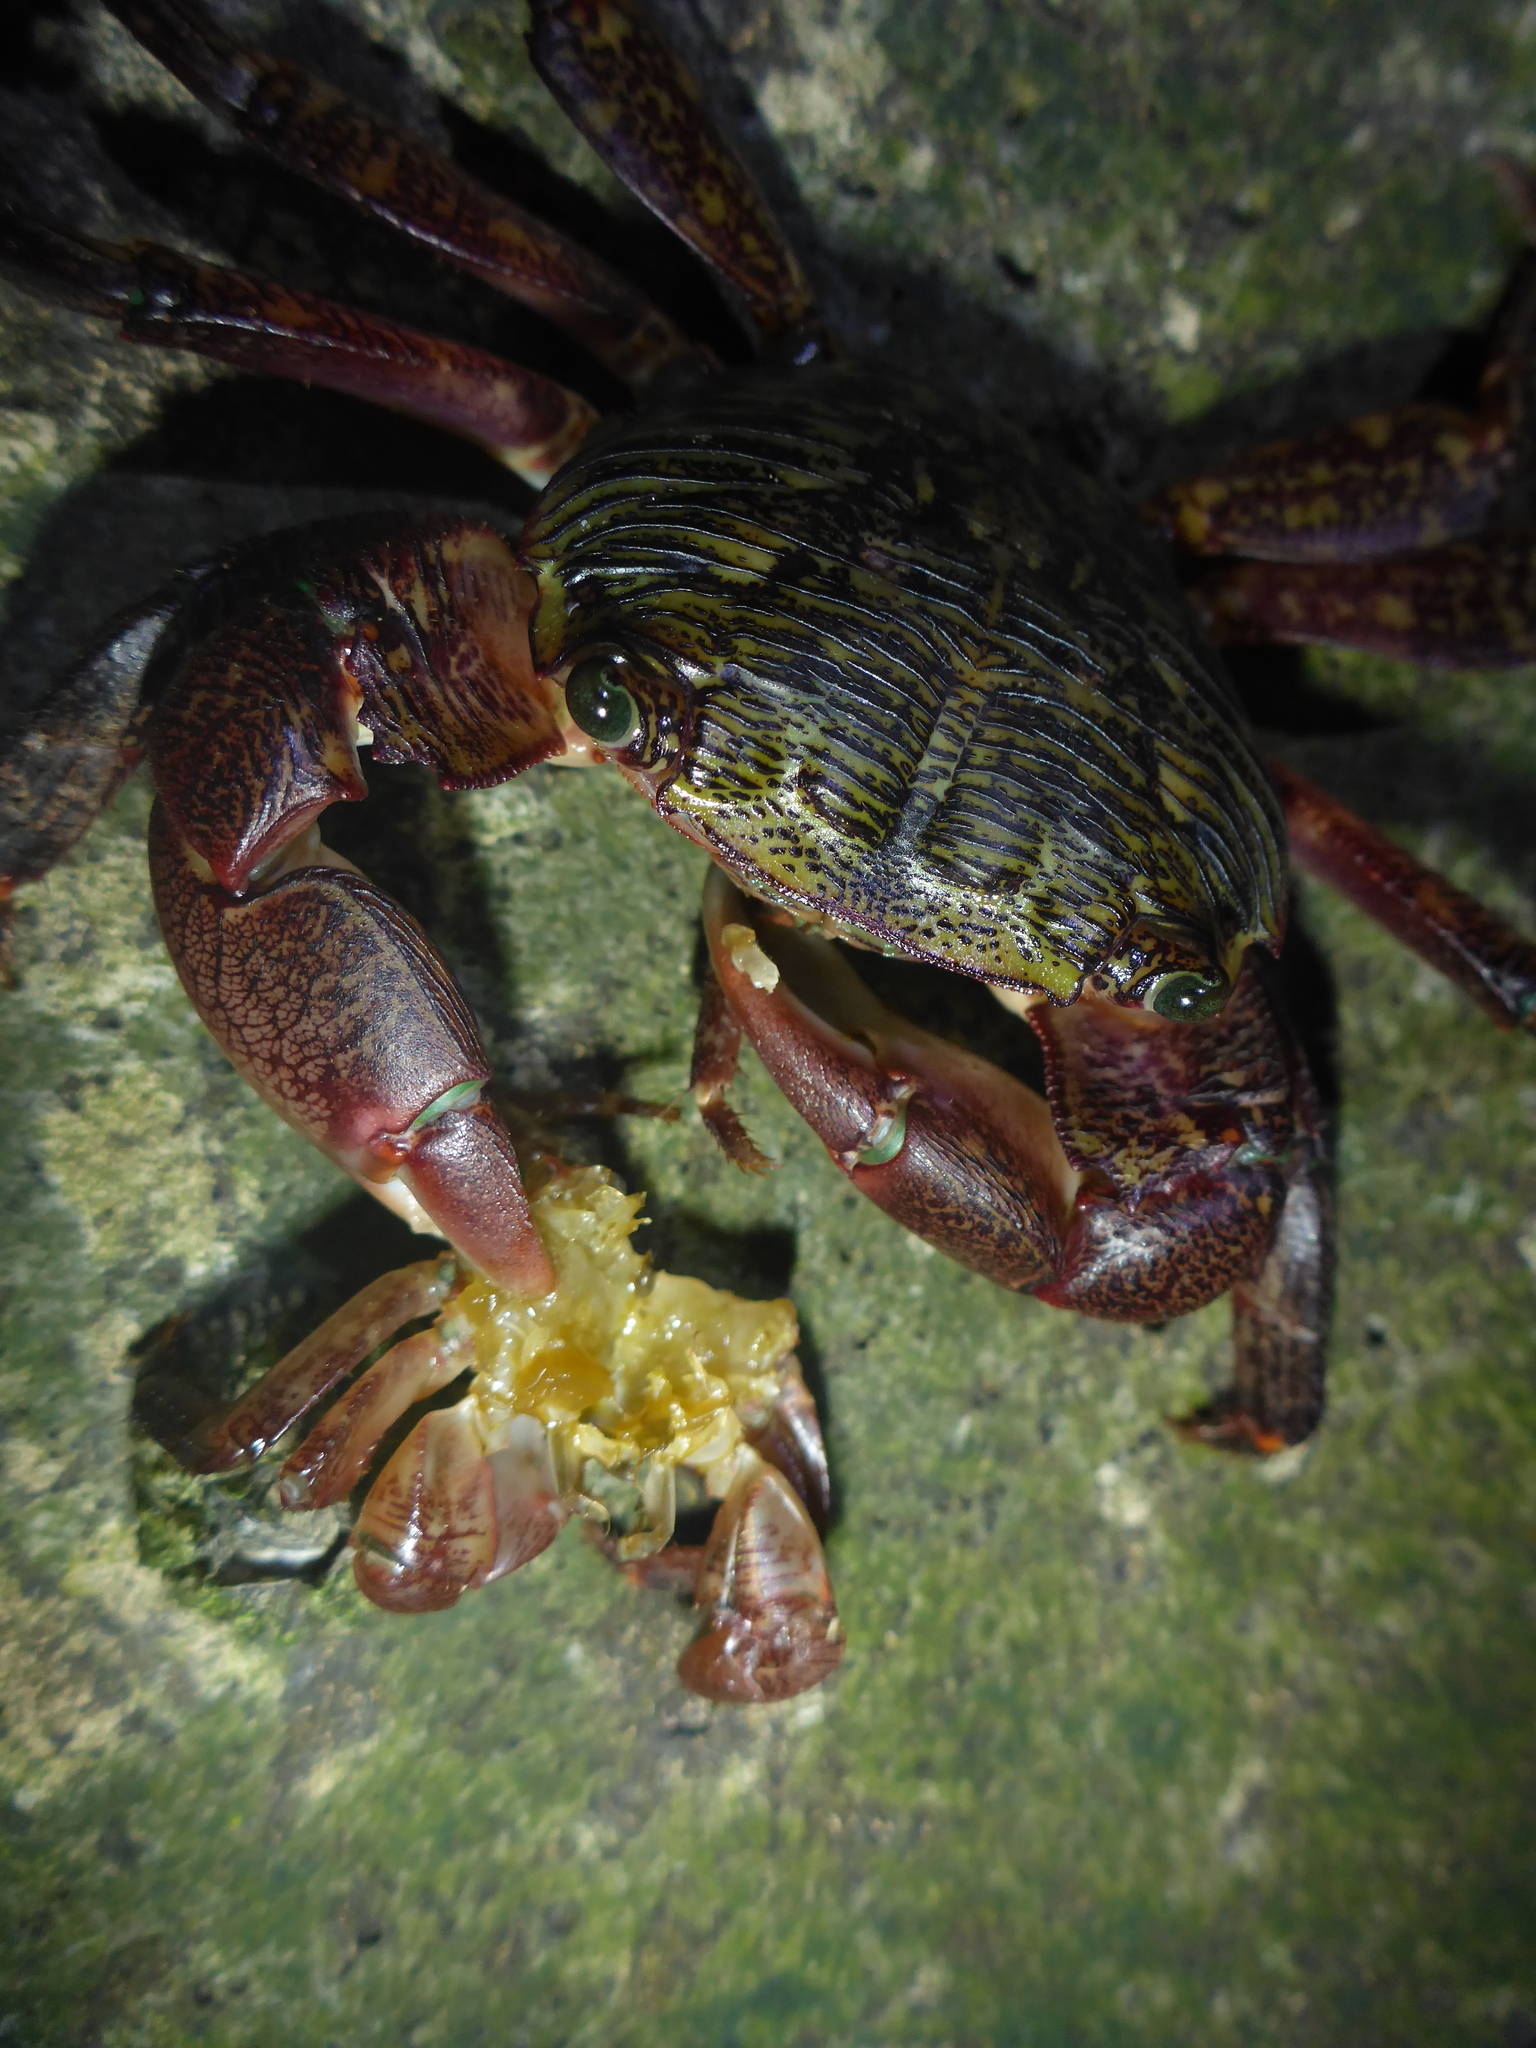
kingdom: Animalia
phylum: Arthropoda
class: Malacostraca
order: Decapoda
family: Grapsidae
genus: Pachygrapsus
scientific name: Pachygrapsus crassipes
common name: Striped shore crab
